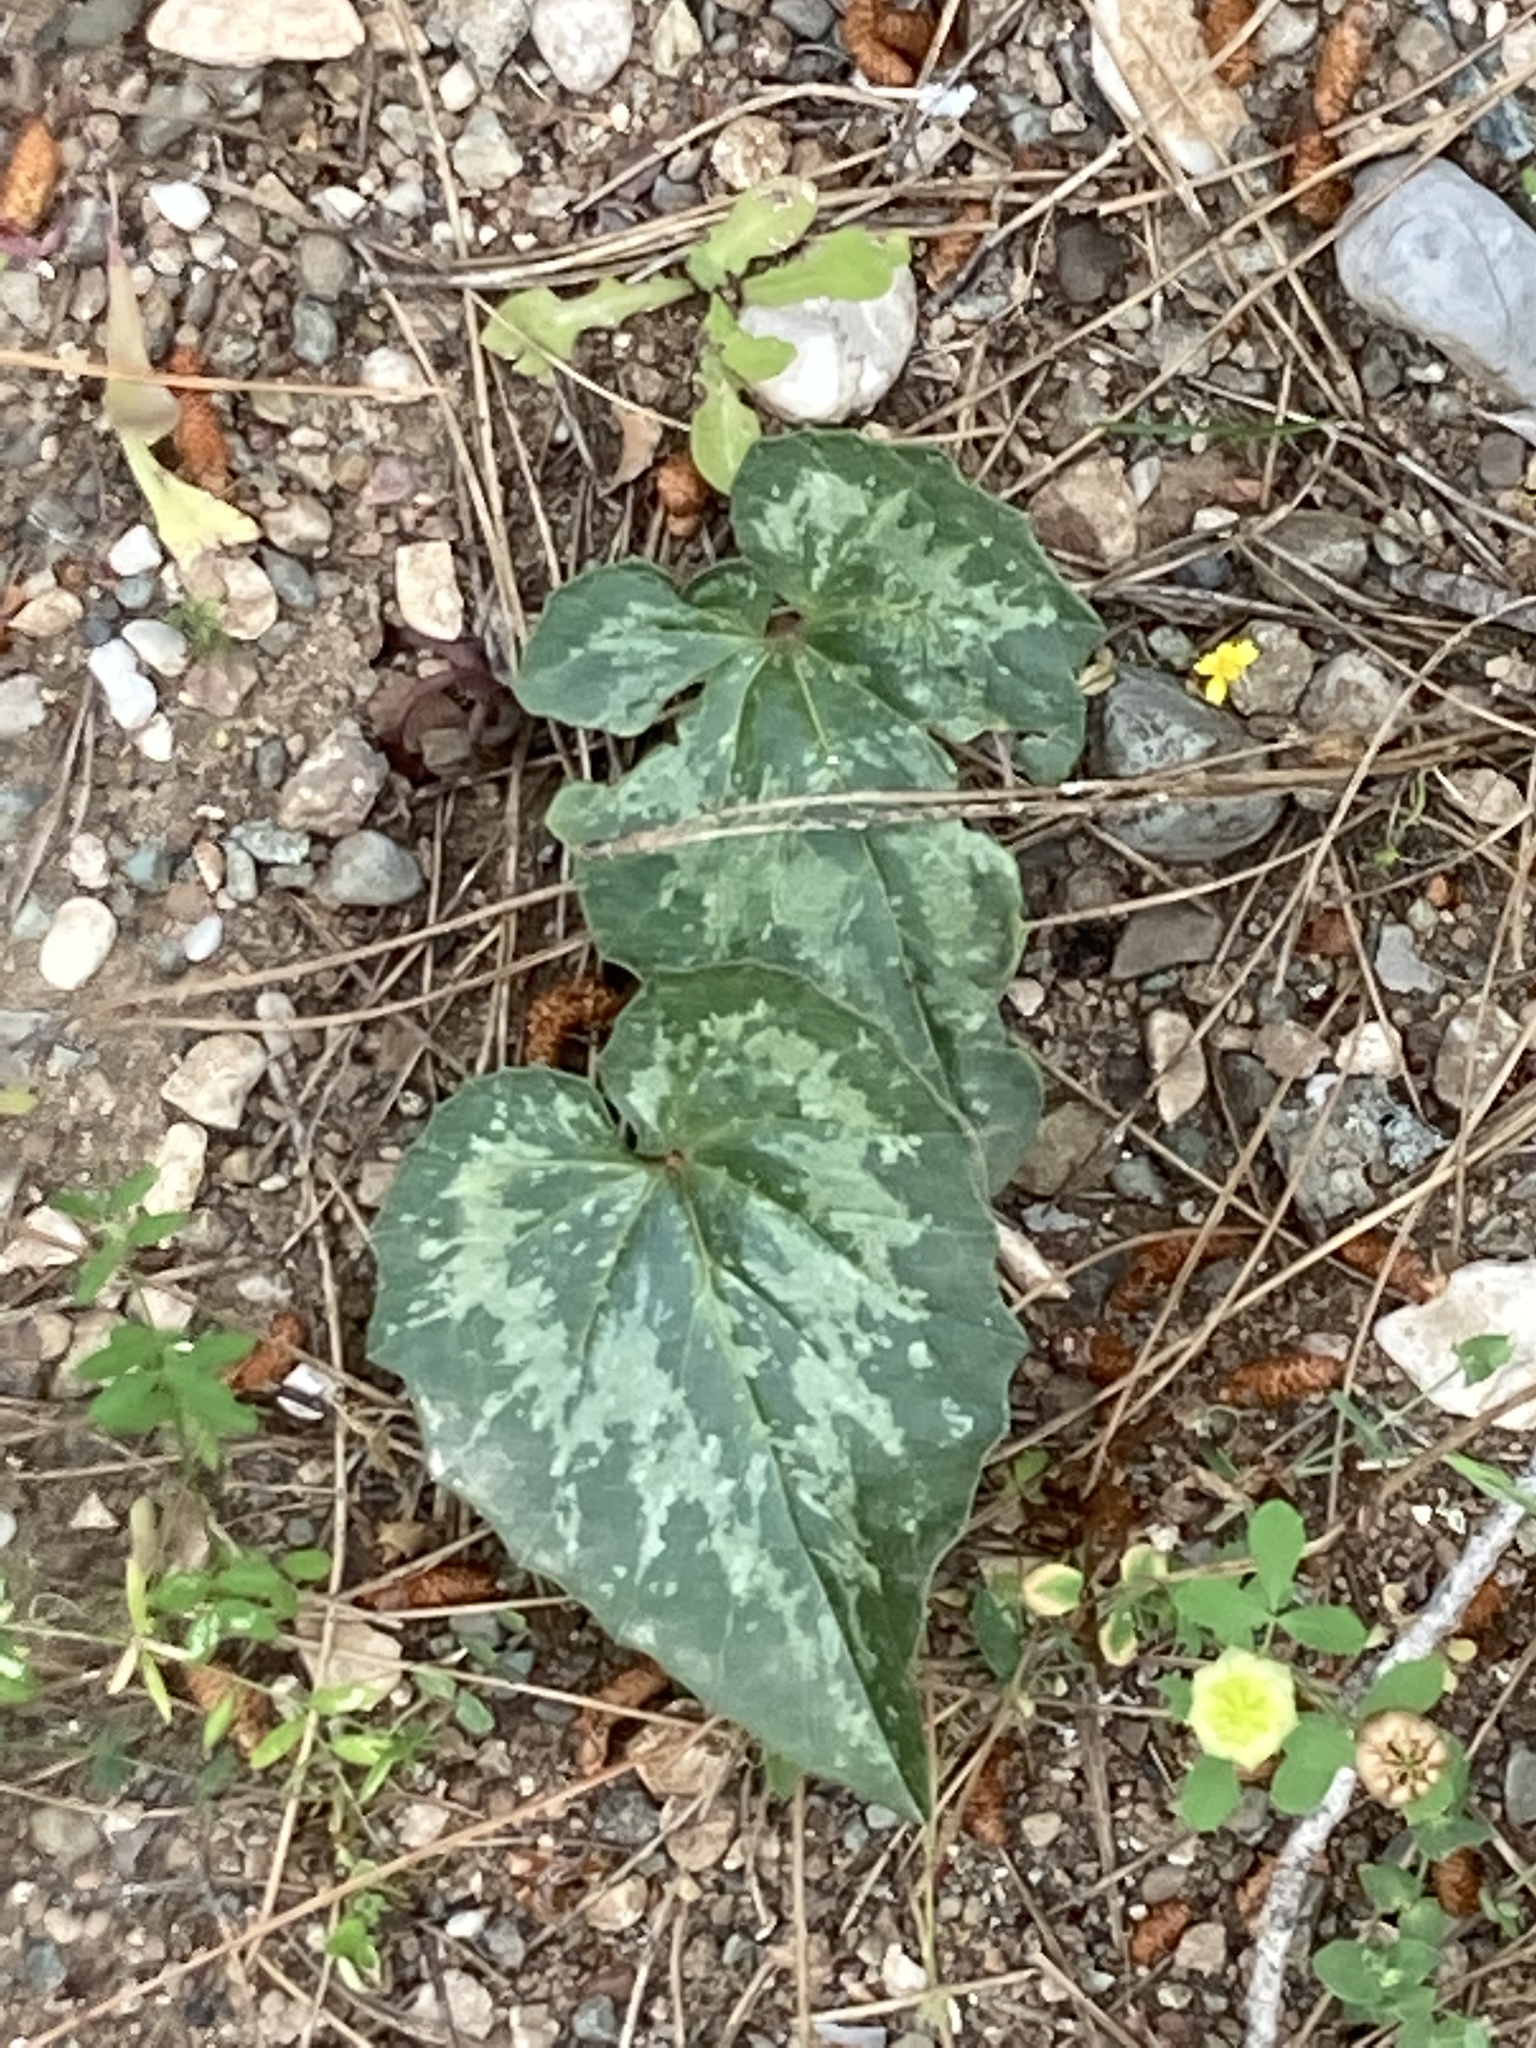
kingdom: Plantae
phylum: Tracheophyta
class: Magnoliopsida
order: Ericales
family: Primulaceae
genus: Cyclamen
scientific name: Cyclamen repandum
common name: Spring sowbread
